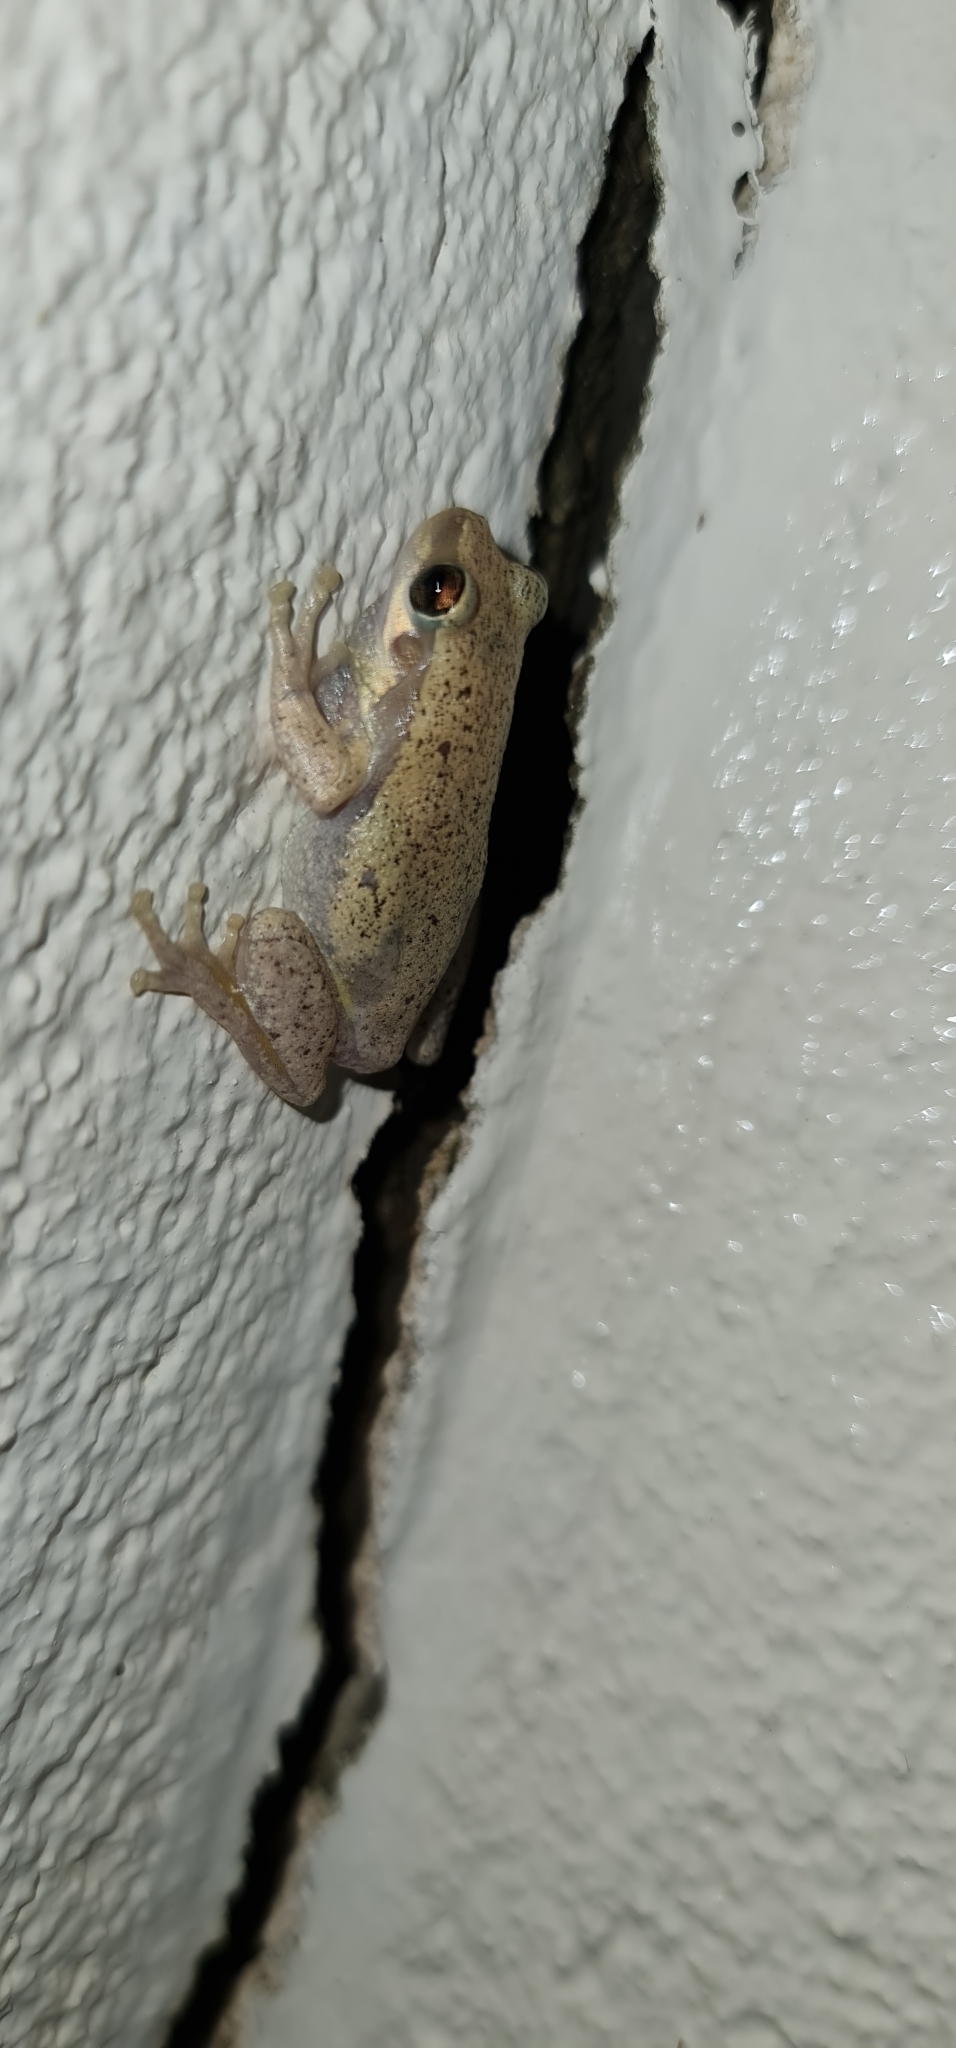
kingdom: Animalia
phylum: Chordata
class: Amphibia
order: Anura
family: Pelodryadidae
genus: Litoria
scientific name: Litoria rubella
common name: Desert tree frog
